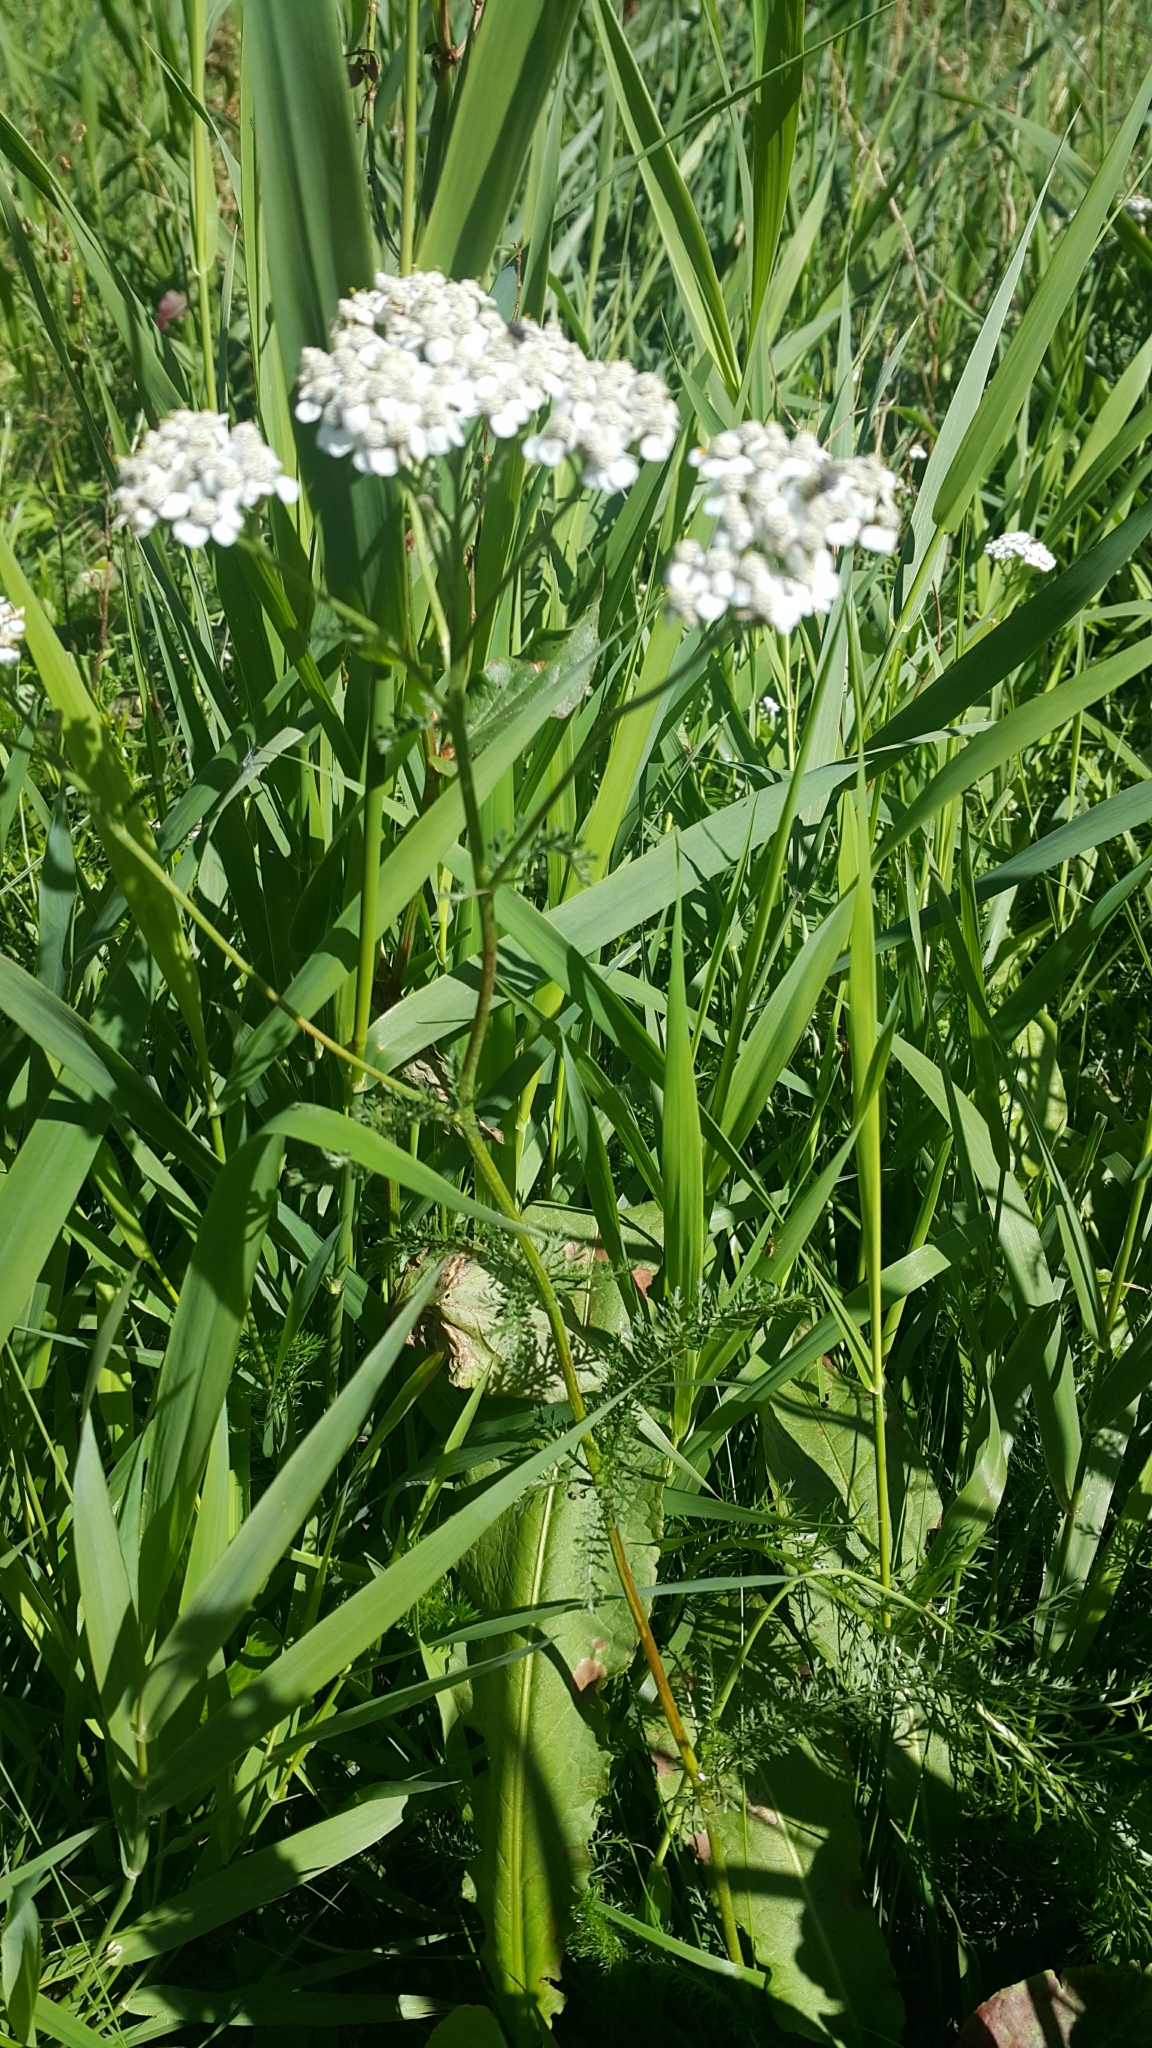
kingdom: Plantae
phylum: Tracheophyta
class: Magnoliopsida
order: Asterales
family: Asteraceae
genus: Achillea
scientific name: Achillea millefolium
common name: Yarrow
